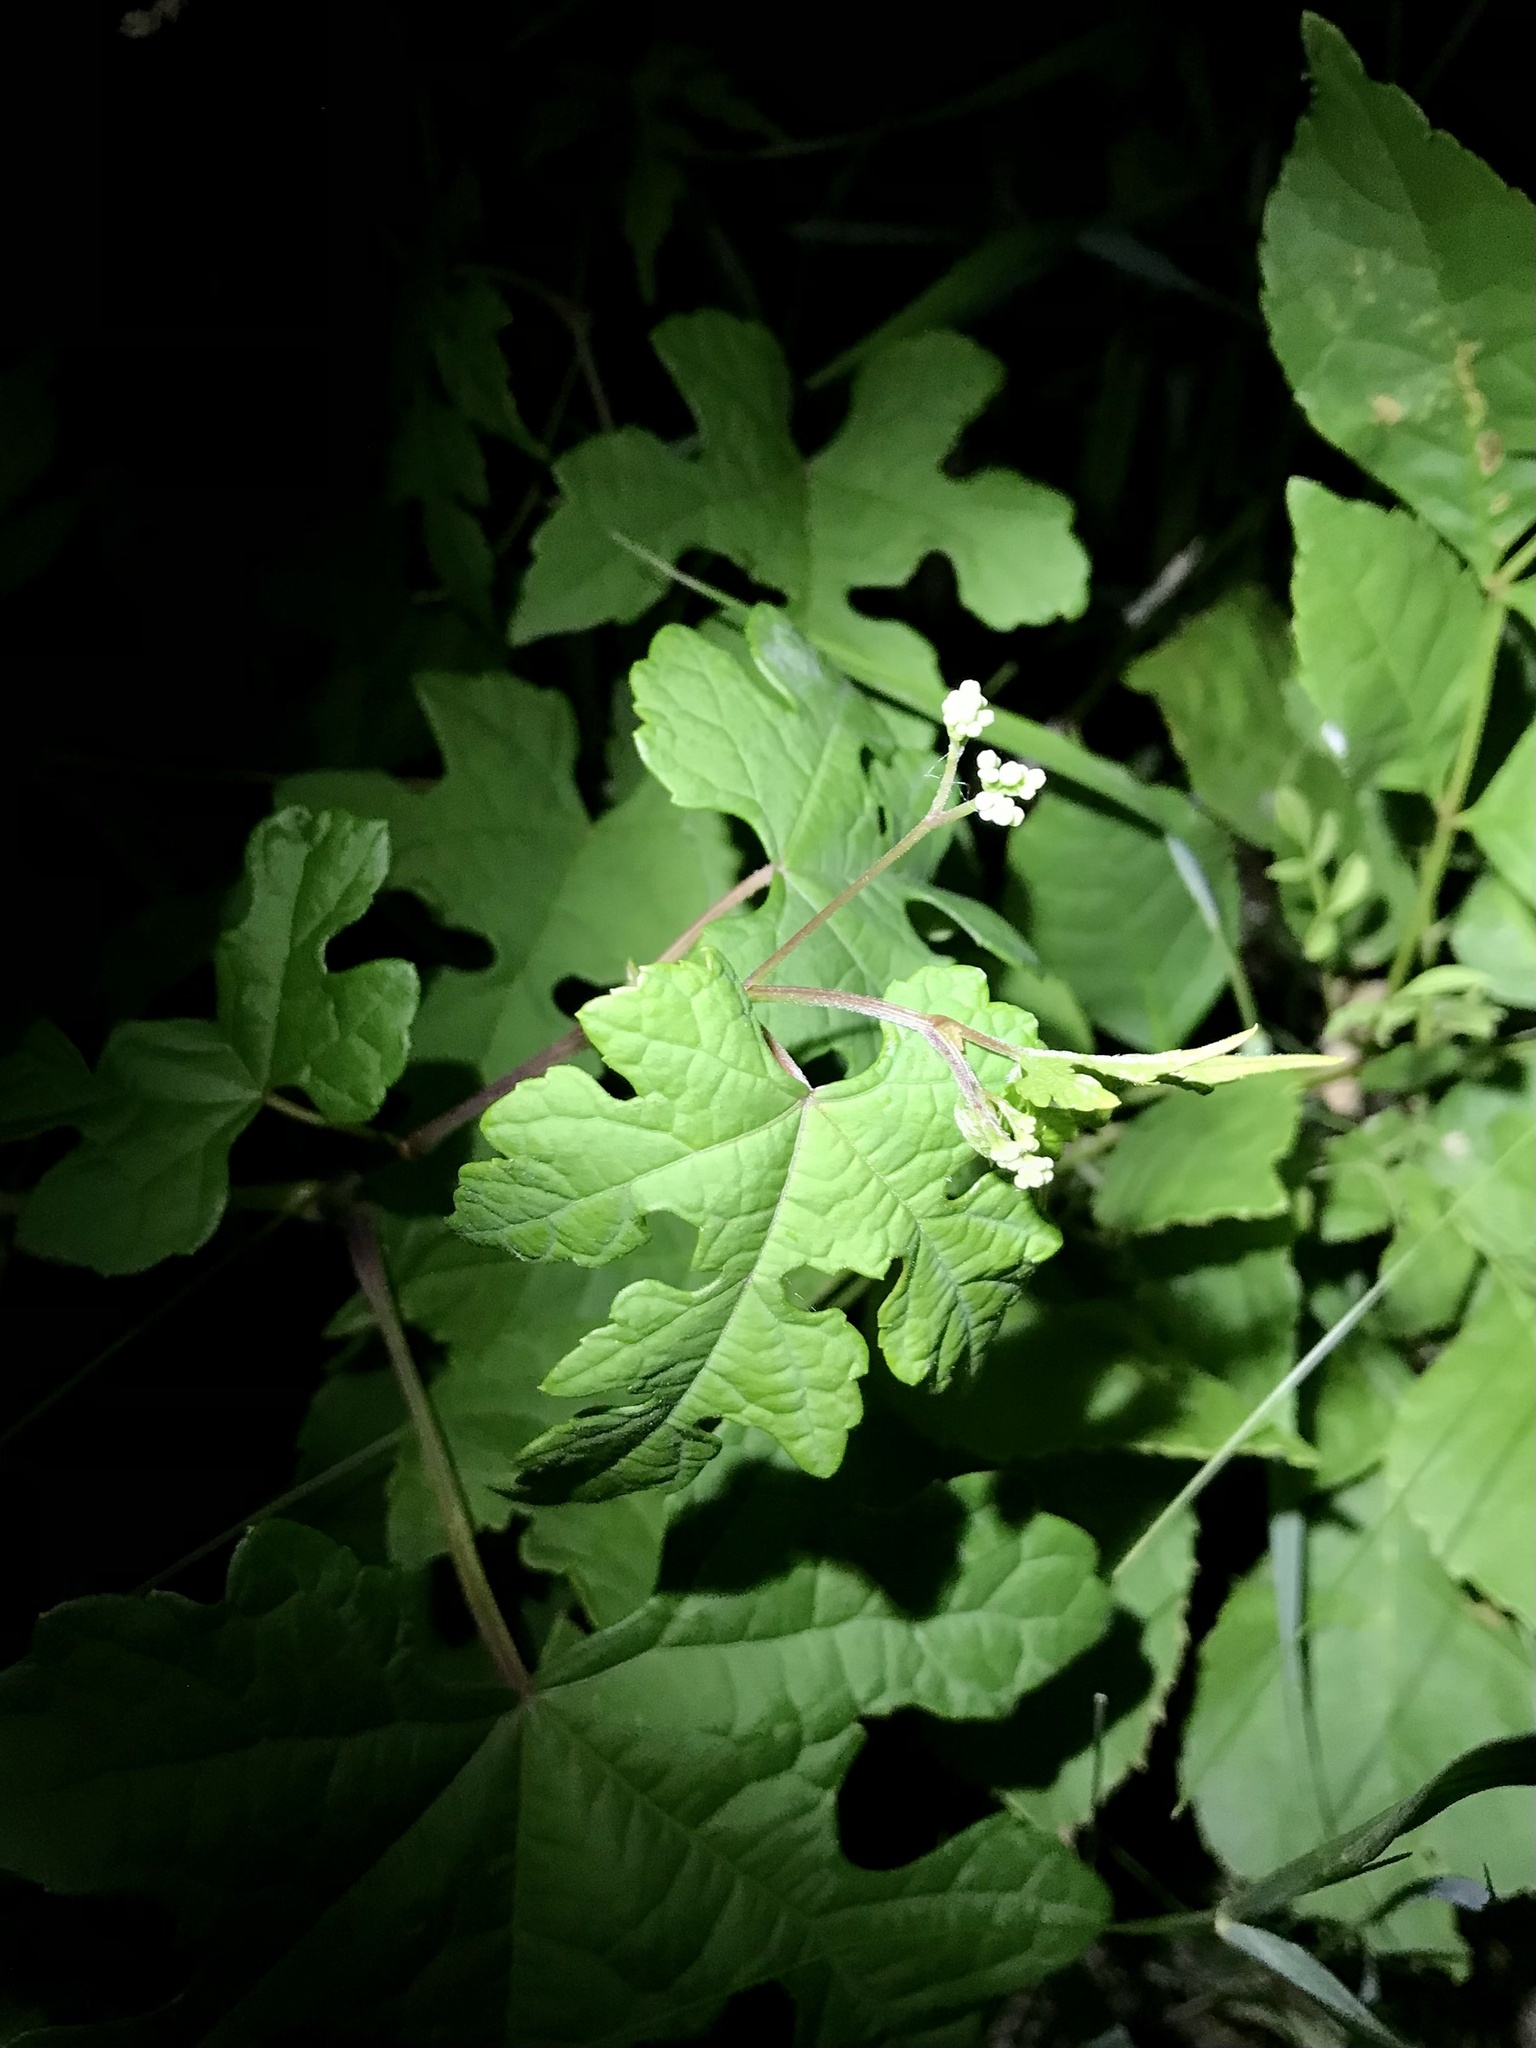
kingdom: Plantae
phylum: Tracheophyta
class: Magnoliopsida
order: Vitales
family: Vitaceae
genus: Ampelopsis
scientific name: Ampelopsis glandulosa
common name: Amur peppervine
